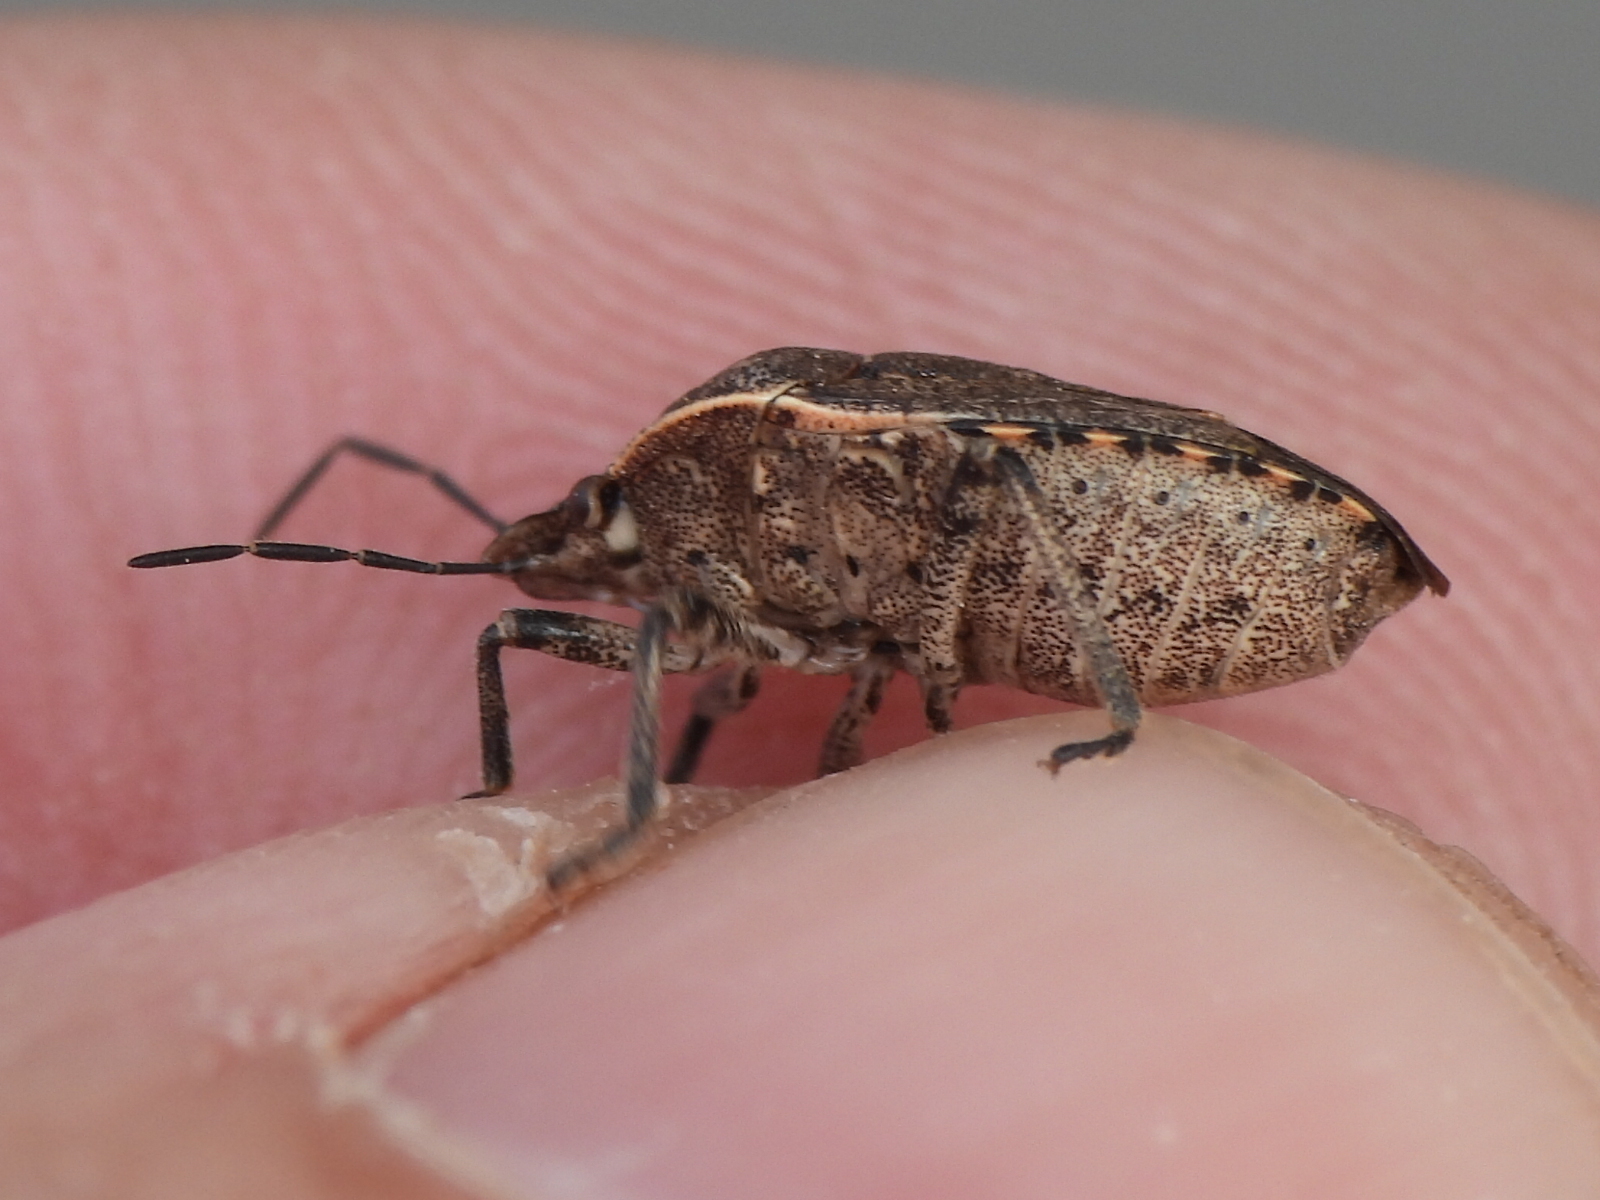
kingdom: Animalia
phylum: Arthropoda
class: Insecta
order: Hemiptera
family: Pentatomidae
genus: Holcostethus
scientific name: Holcostethus abbreviatus
